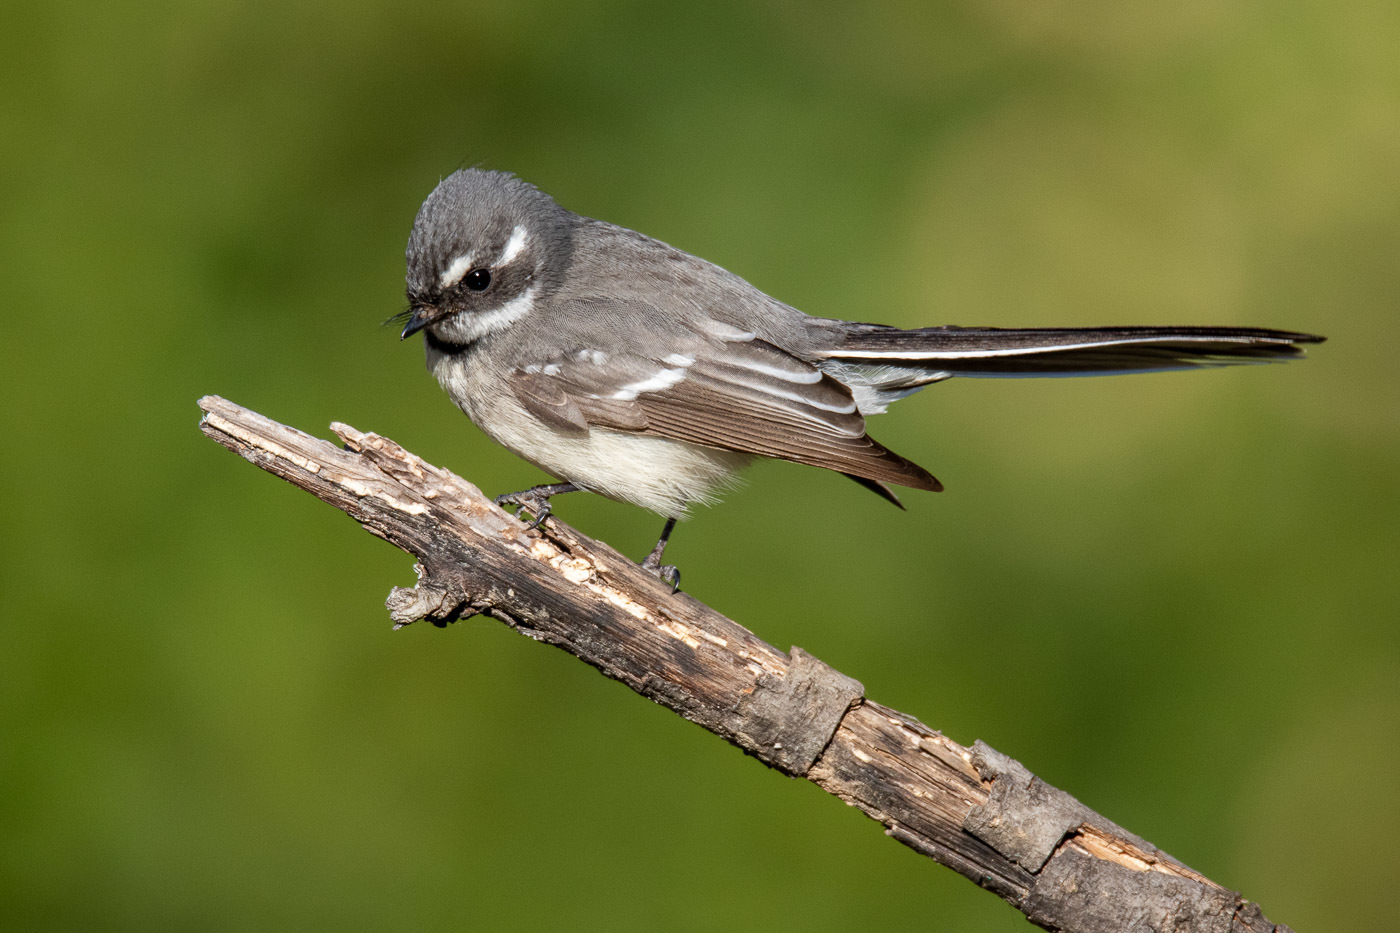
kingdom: Animalia
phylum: Chordata
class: Aves
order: Passeriformes
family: Rhipiduridae
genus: Rhipidura
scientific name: Rhipidura albiscapa
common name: Grey fantail
